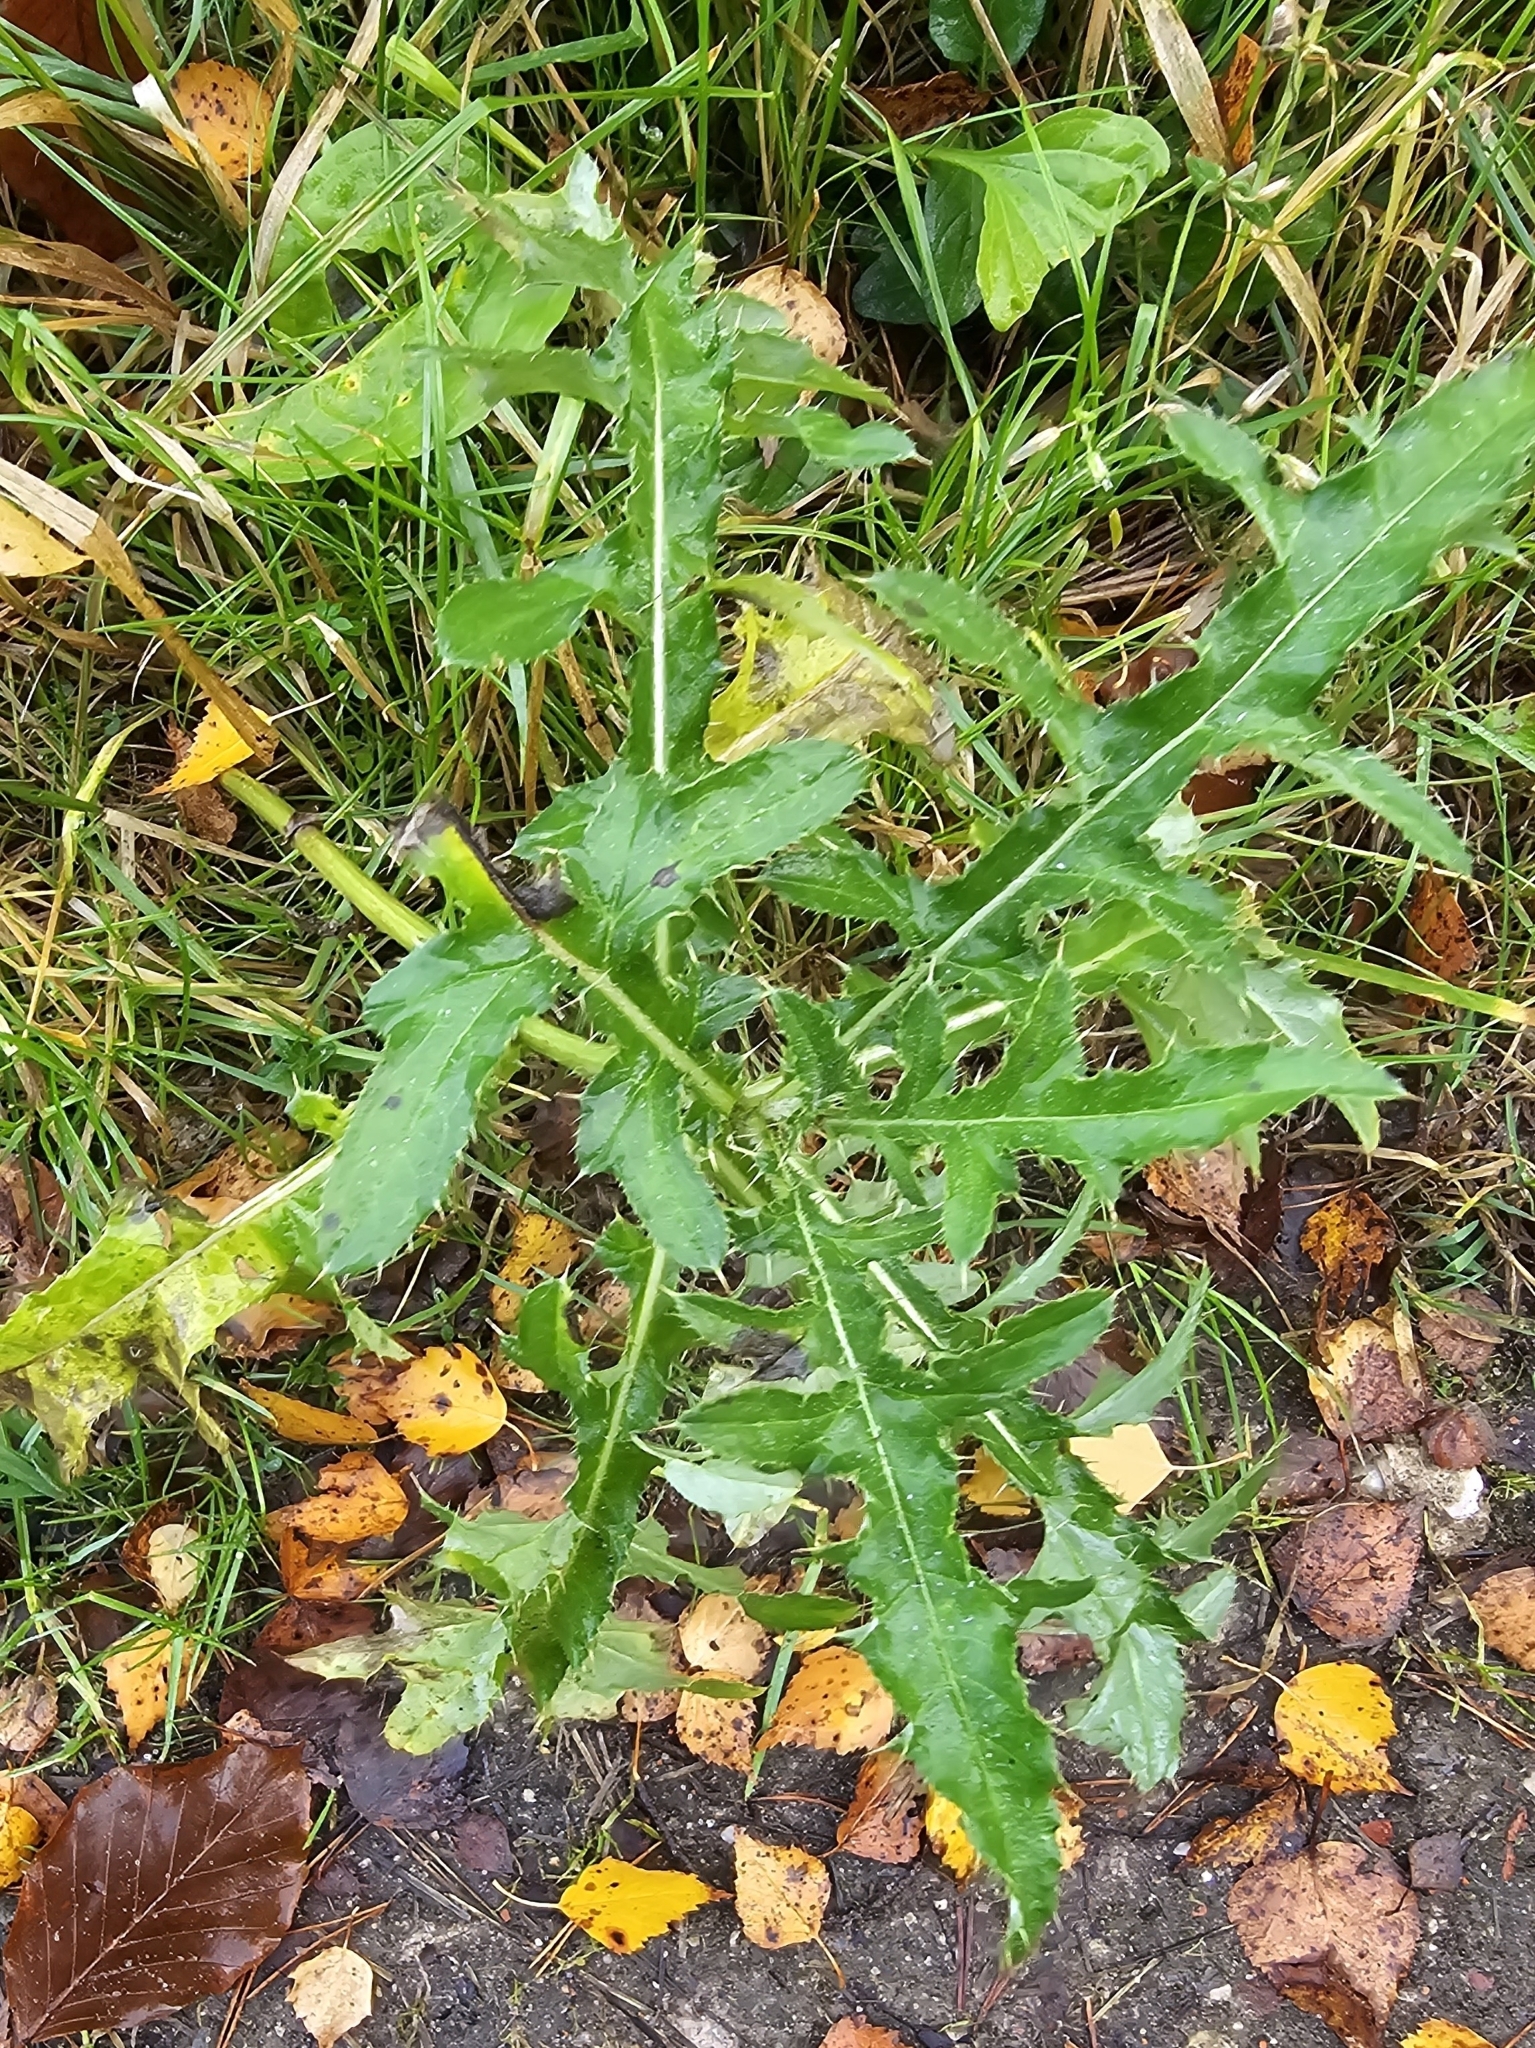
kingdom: Plantae
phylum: Tracheophyta
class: Magnoliopsida
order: Asterales
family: Asteraceae
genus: Cirsium
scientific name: Cirsium arvense
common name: Creeping thistle
